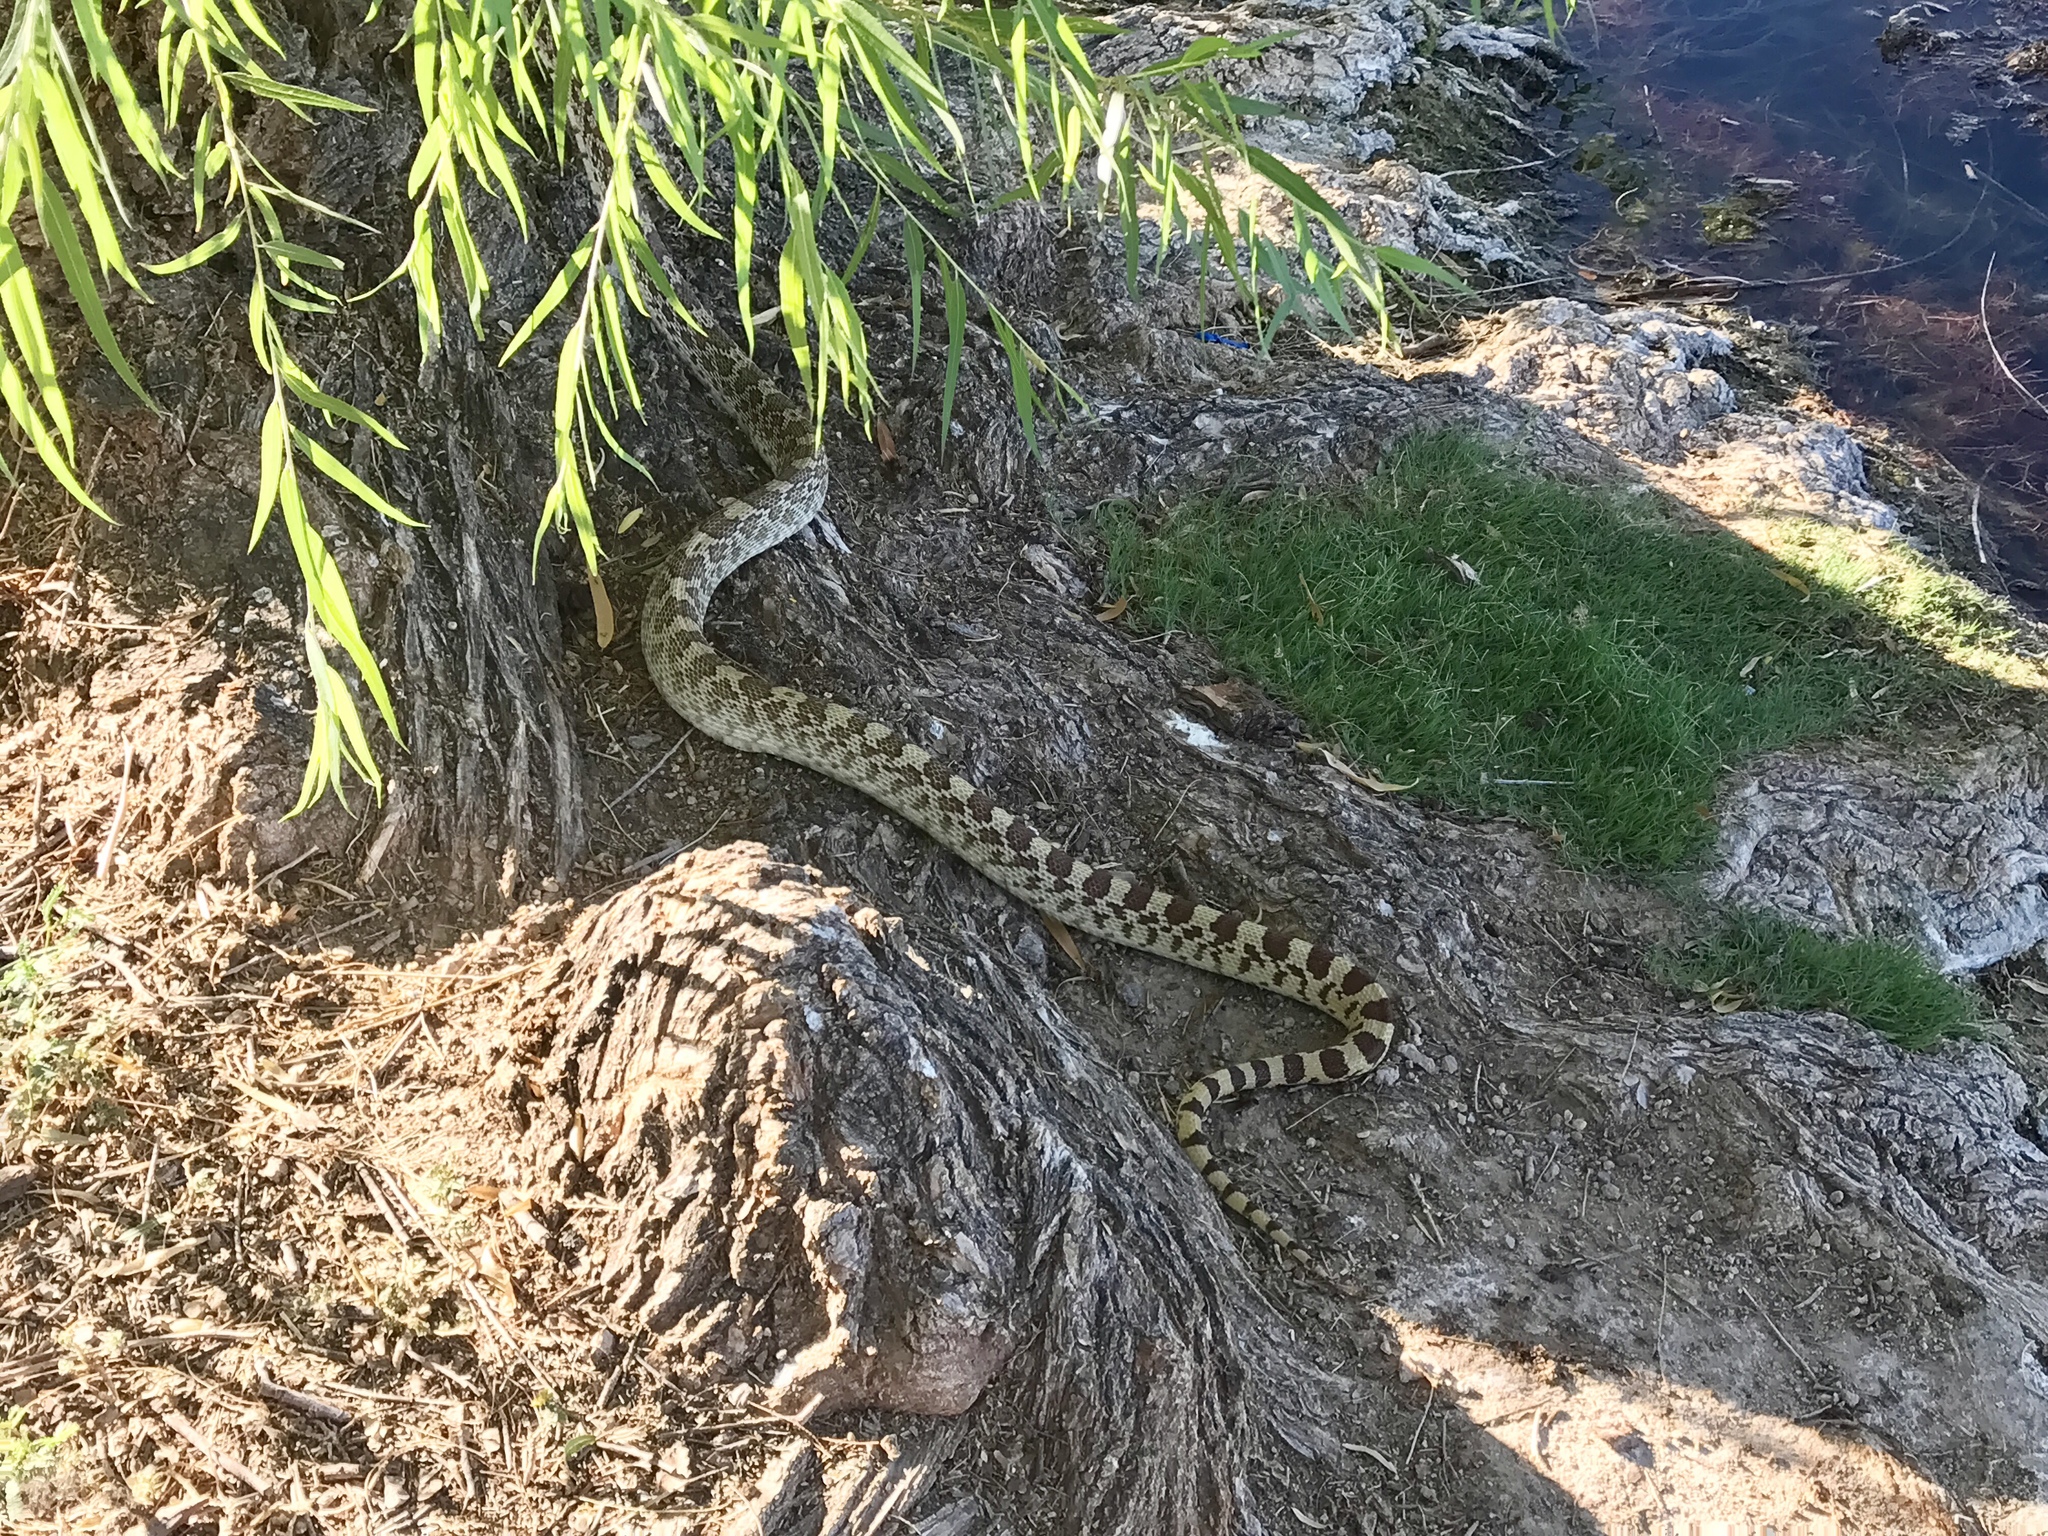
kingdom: Animalia
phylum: Chordata
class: Squamata
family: Colubridae
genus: Pituophis
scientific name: Pituophis catenifer
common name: Gopher snake
